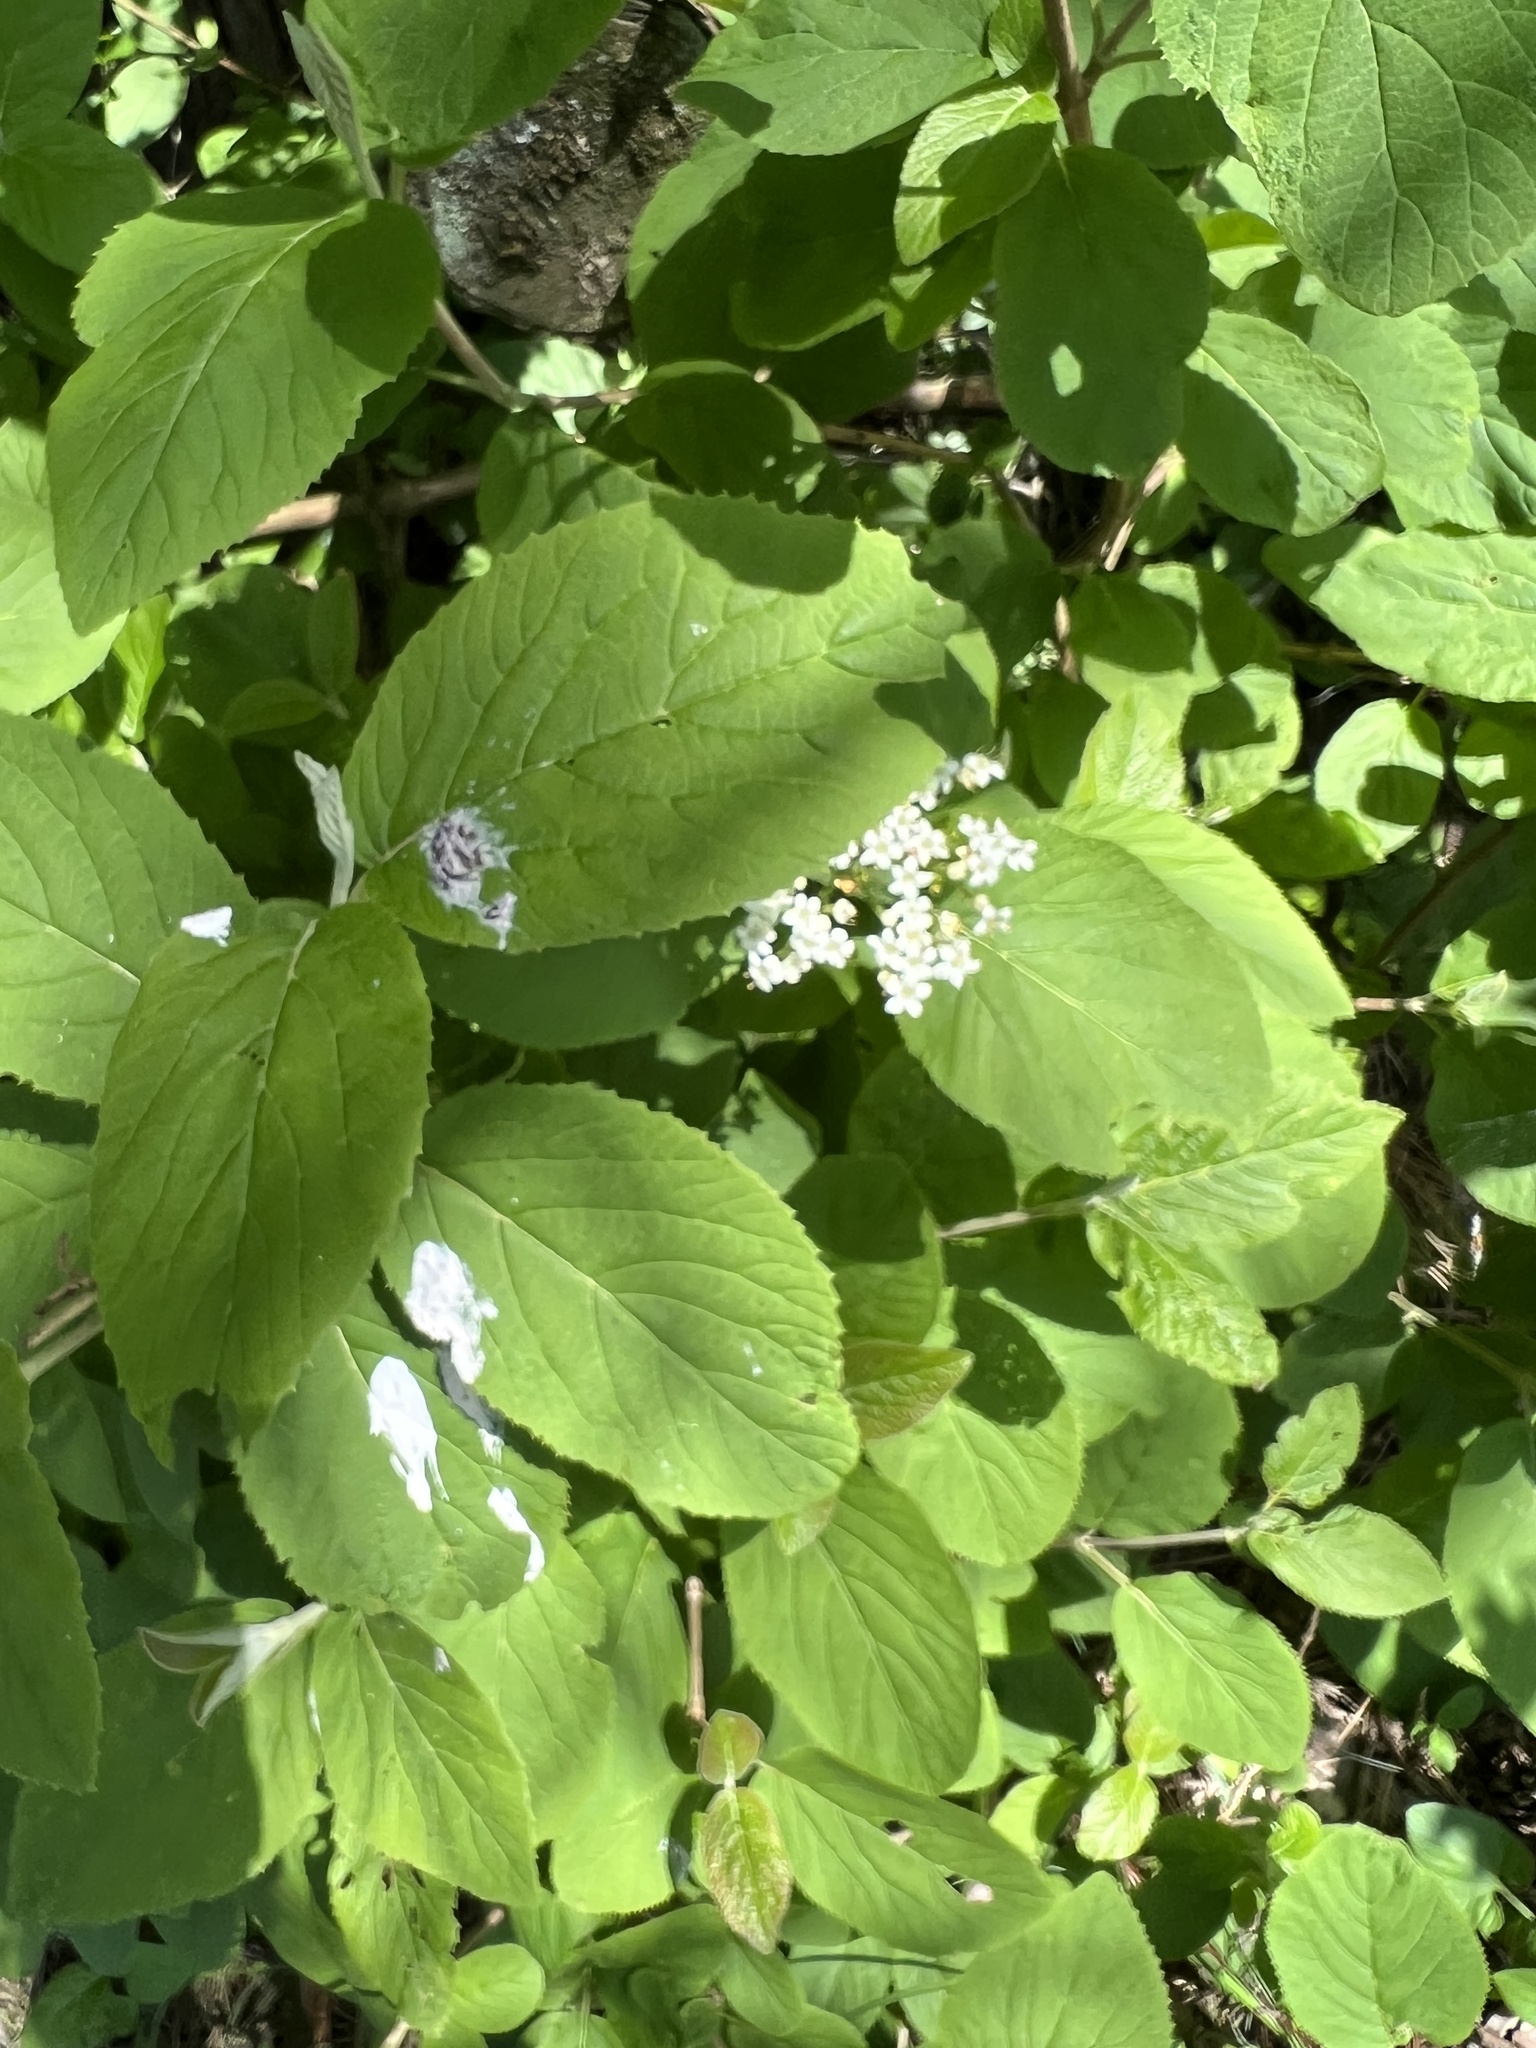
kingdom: Plantae
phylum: Tracheophyta
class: Magnoliopsida
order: Dipsacales
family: Viburnaceae
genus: Viburnum
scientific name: Viburnum lantana
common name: Wayfaring tree
